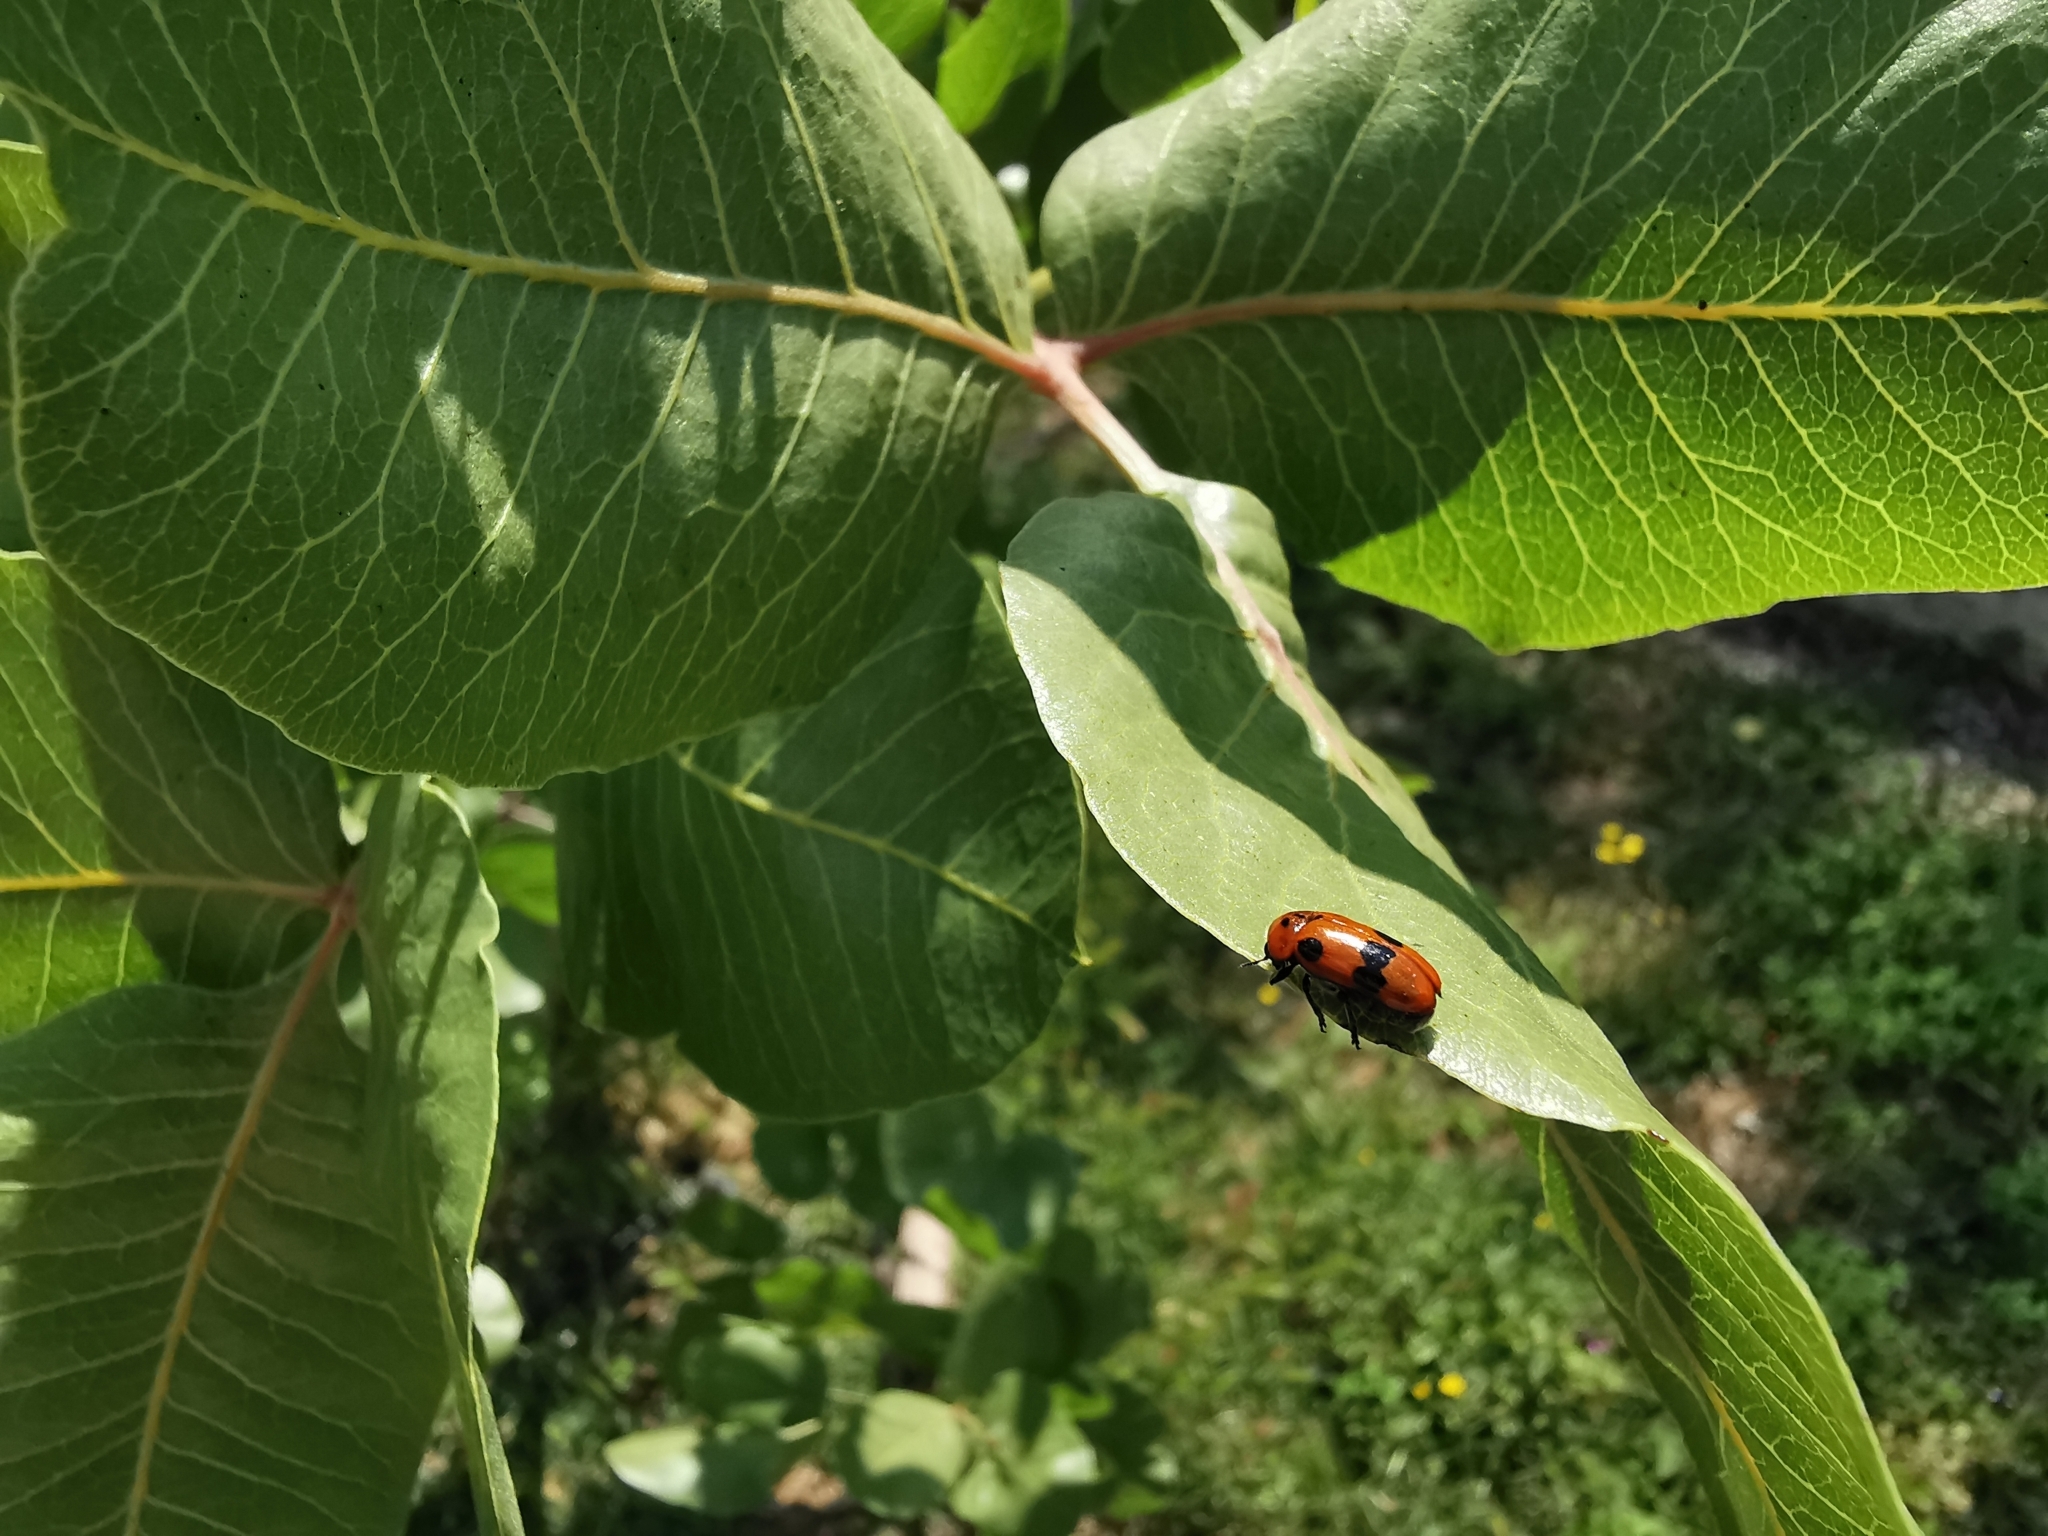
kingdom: Animalia
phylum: Arthropoda
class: Insecta
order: Coleoptera
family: Chrysomelidae
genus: Clytra
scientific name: Clytra novempunctata
